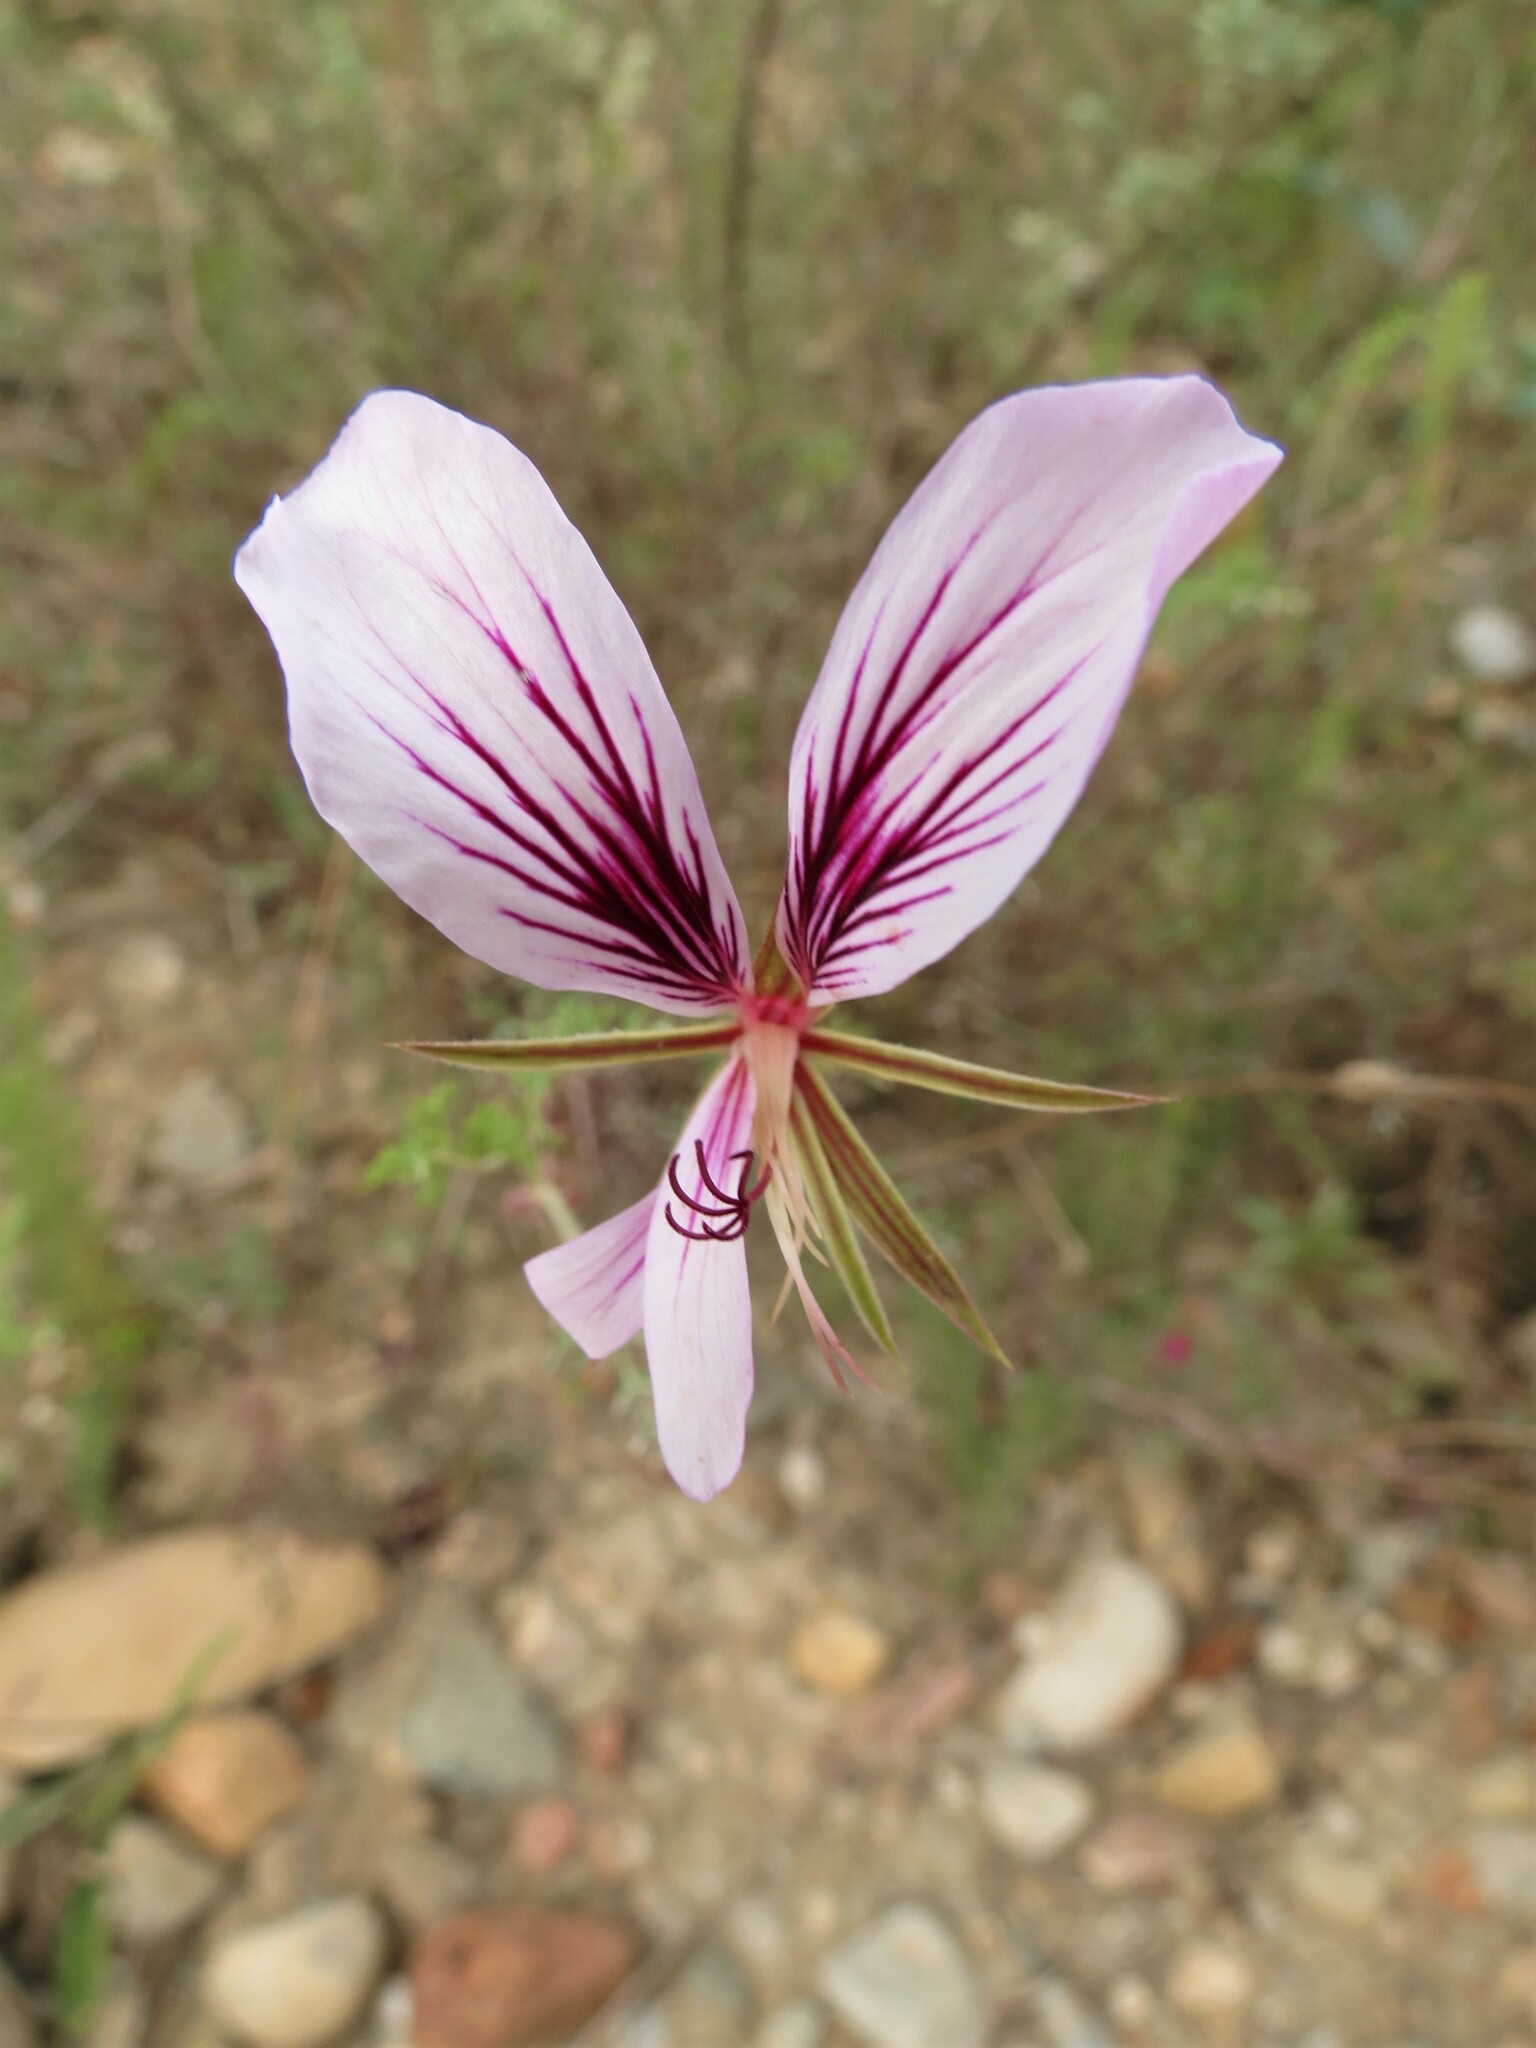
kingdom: Plantae
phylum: Tracheophyta
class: Magnoliopsida
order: Geraniales
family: Geraniaceae
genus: Pelargonium
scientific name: Pelargonium caucalifolium
